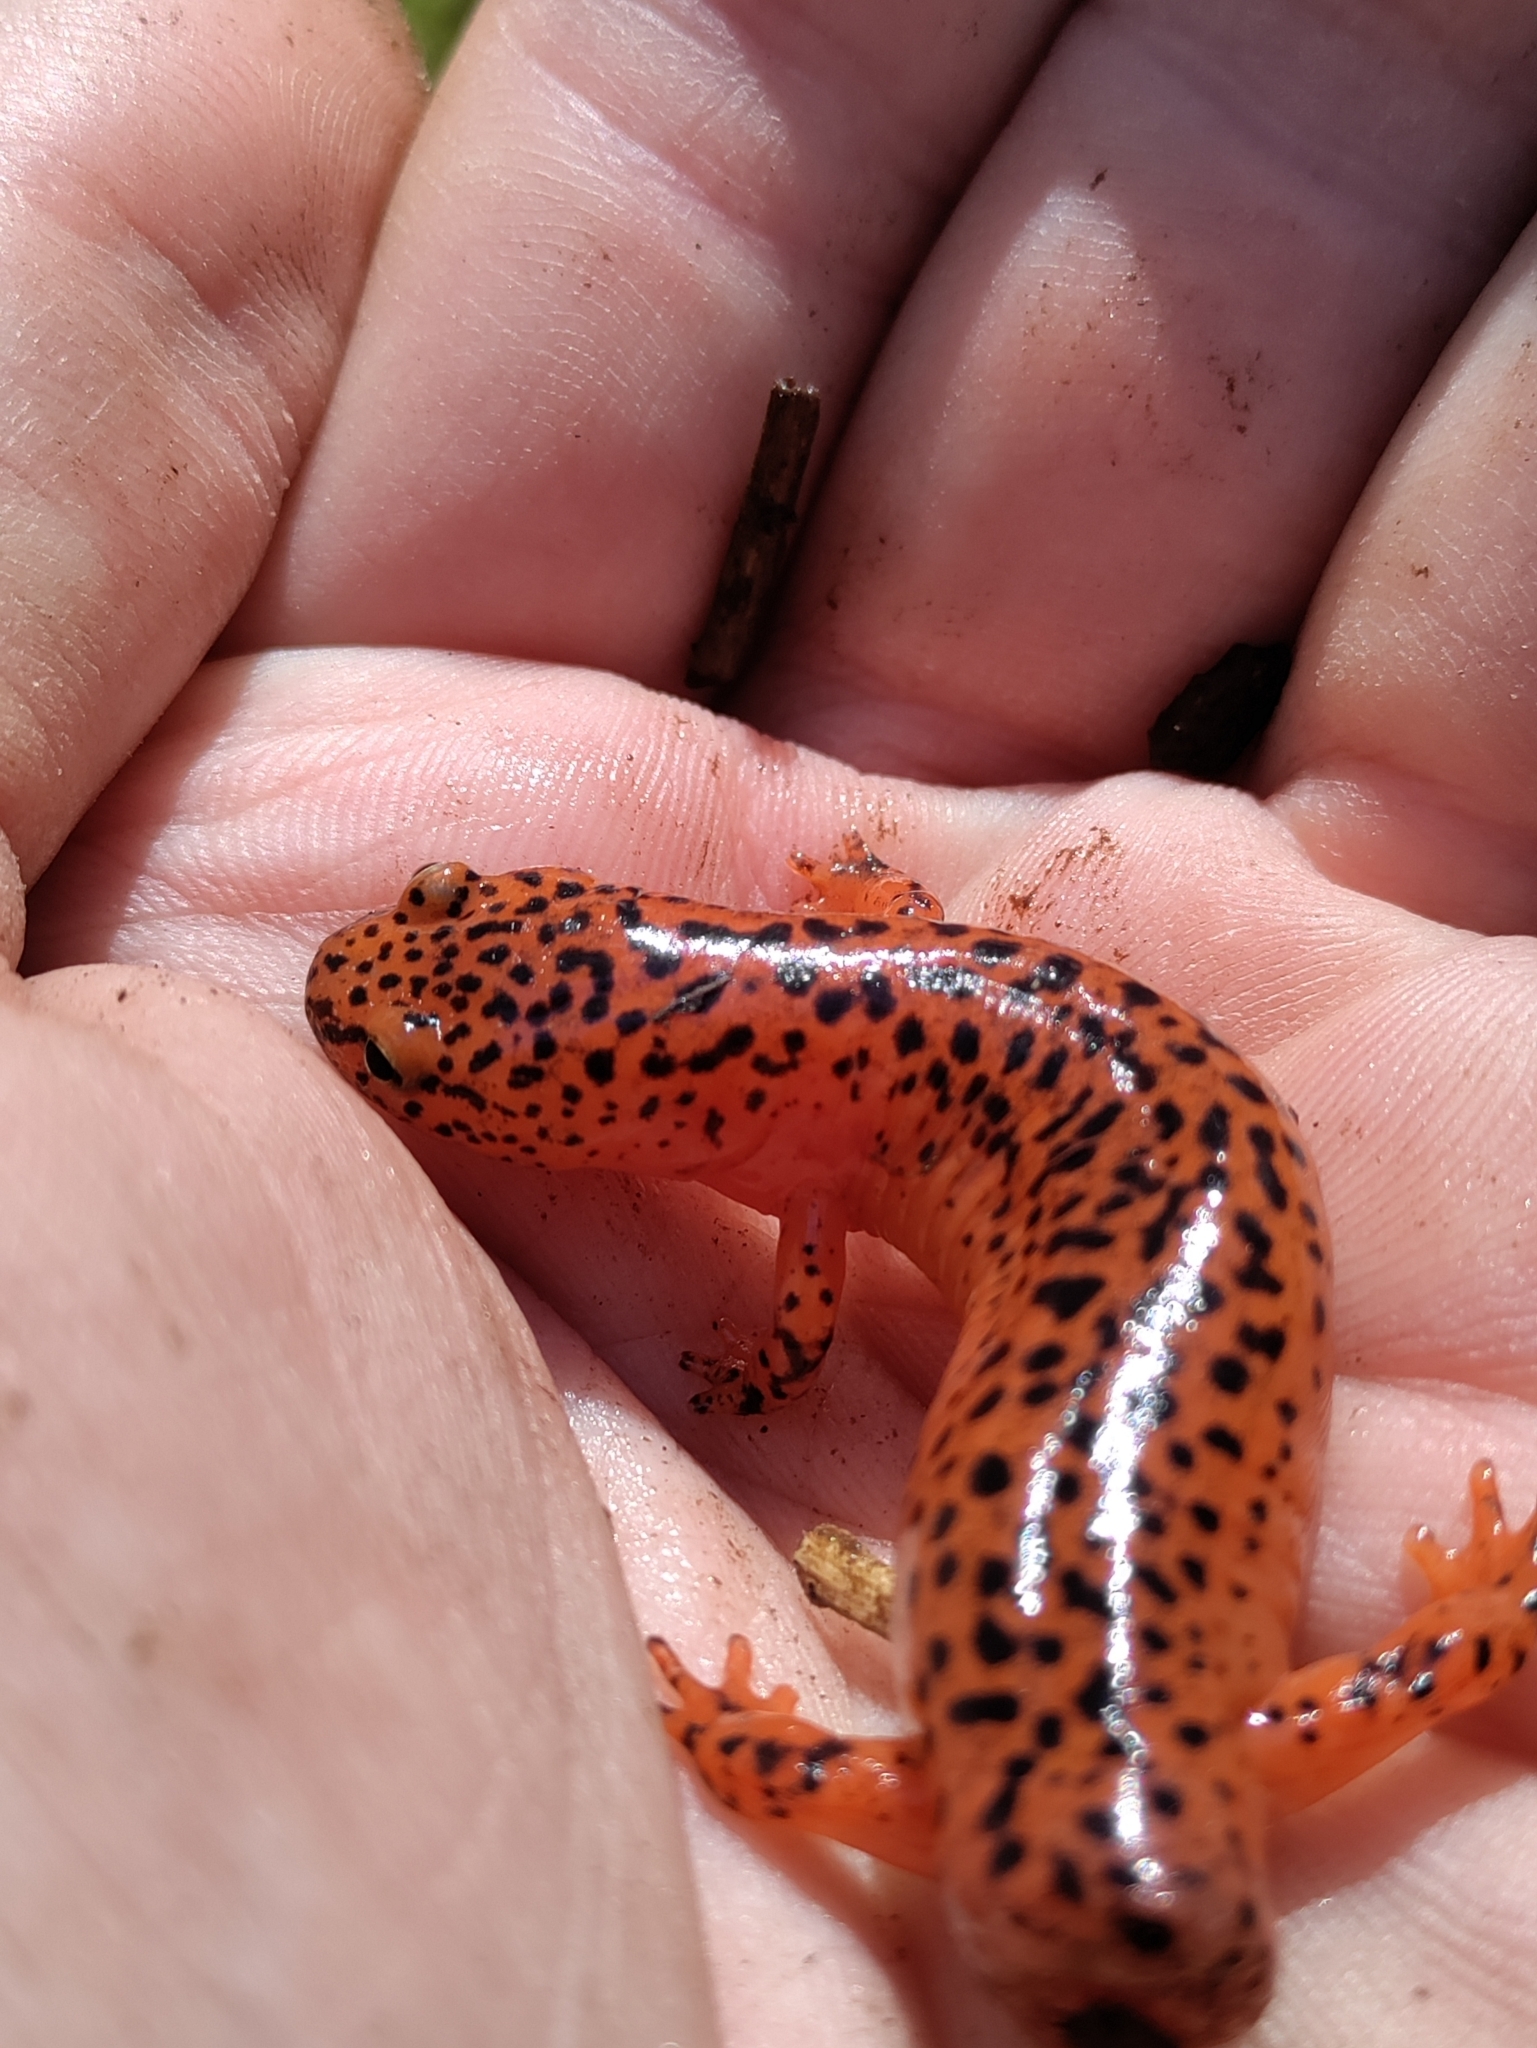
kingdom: Animalia
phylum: Chordata
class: Amphibia
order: Caudata
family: Plethodontidae
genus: Pseudotriton
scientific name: Pseudotriton ruber
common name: Red salamander
